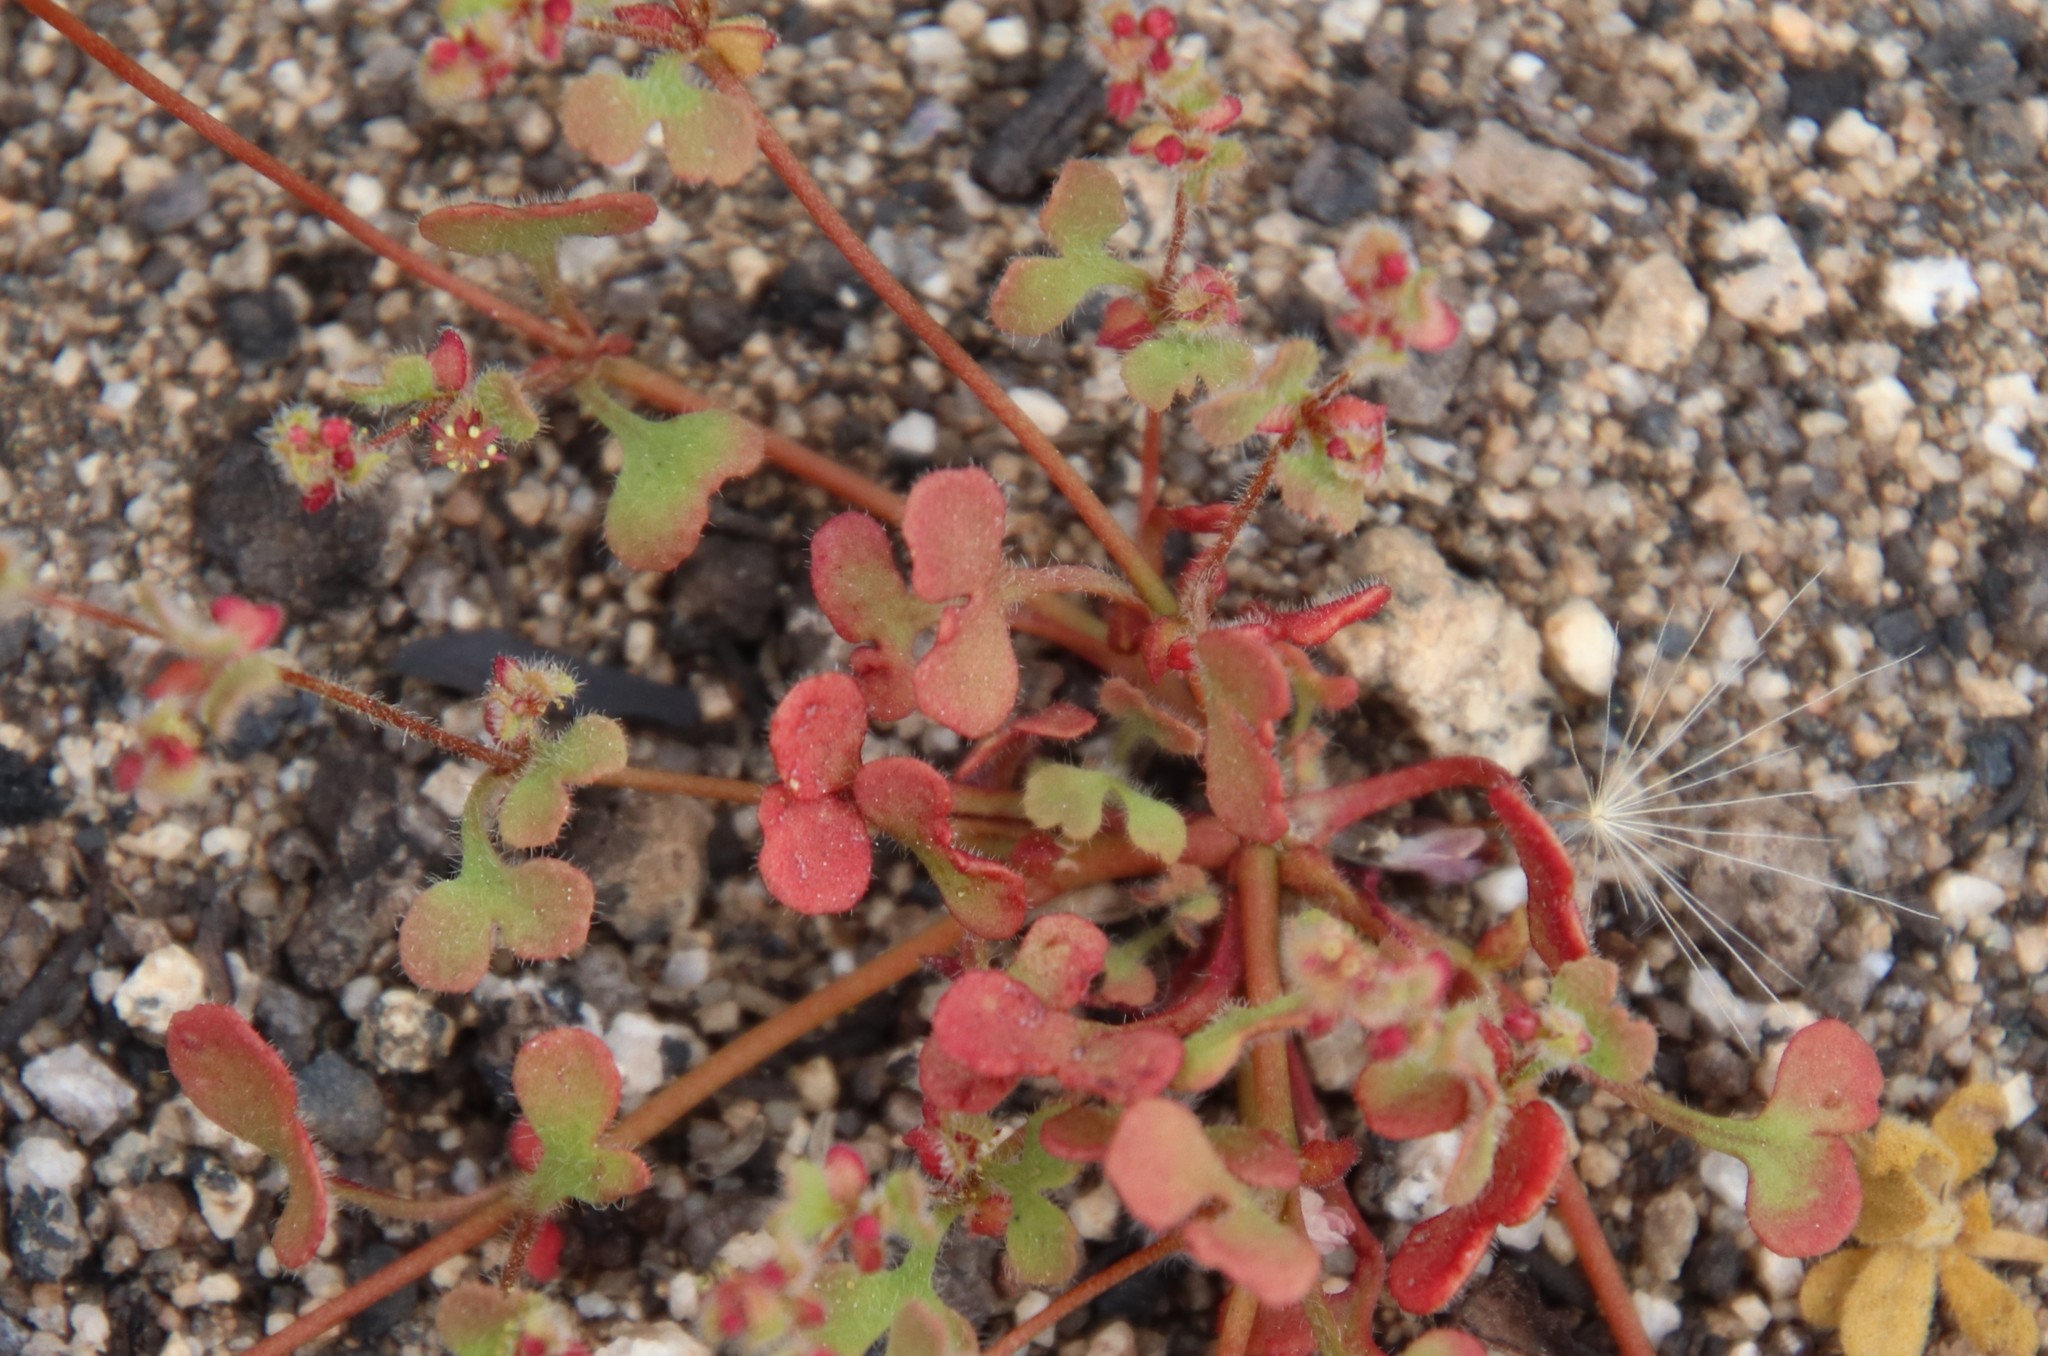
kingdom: Plantae
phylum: Tracheophyta
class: Magnoliopsida
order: Caryophyllales
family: Polygonaceae
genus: Pterostegia
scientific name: Pterostegia drymarioides
